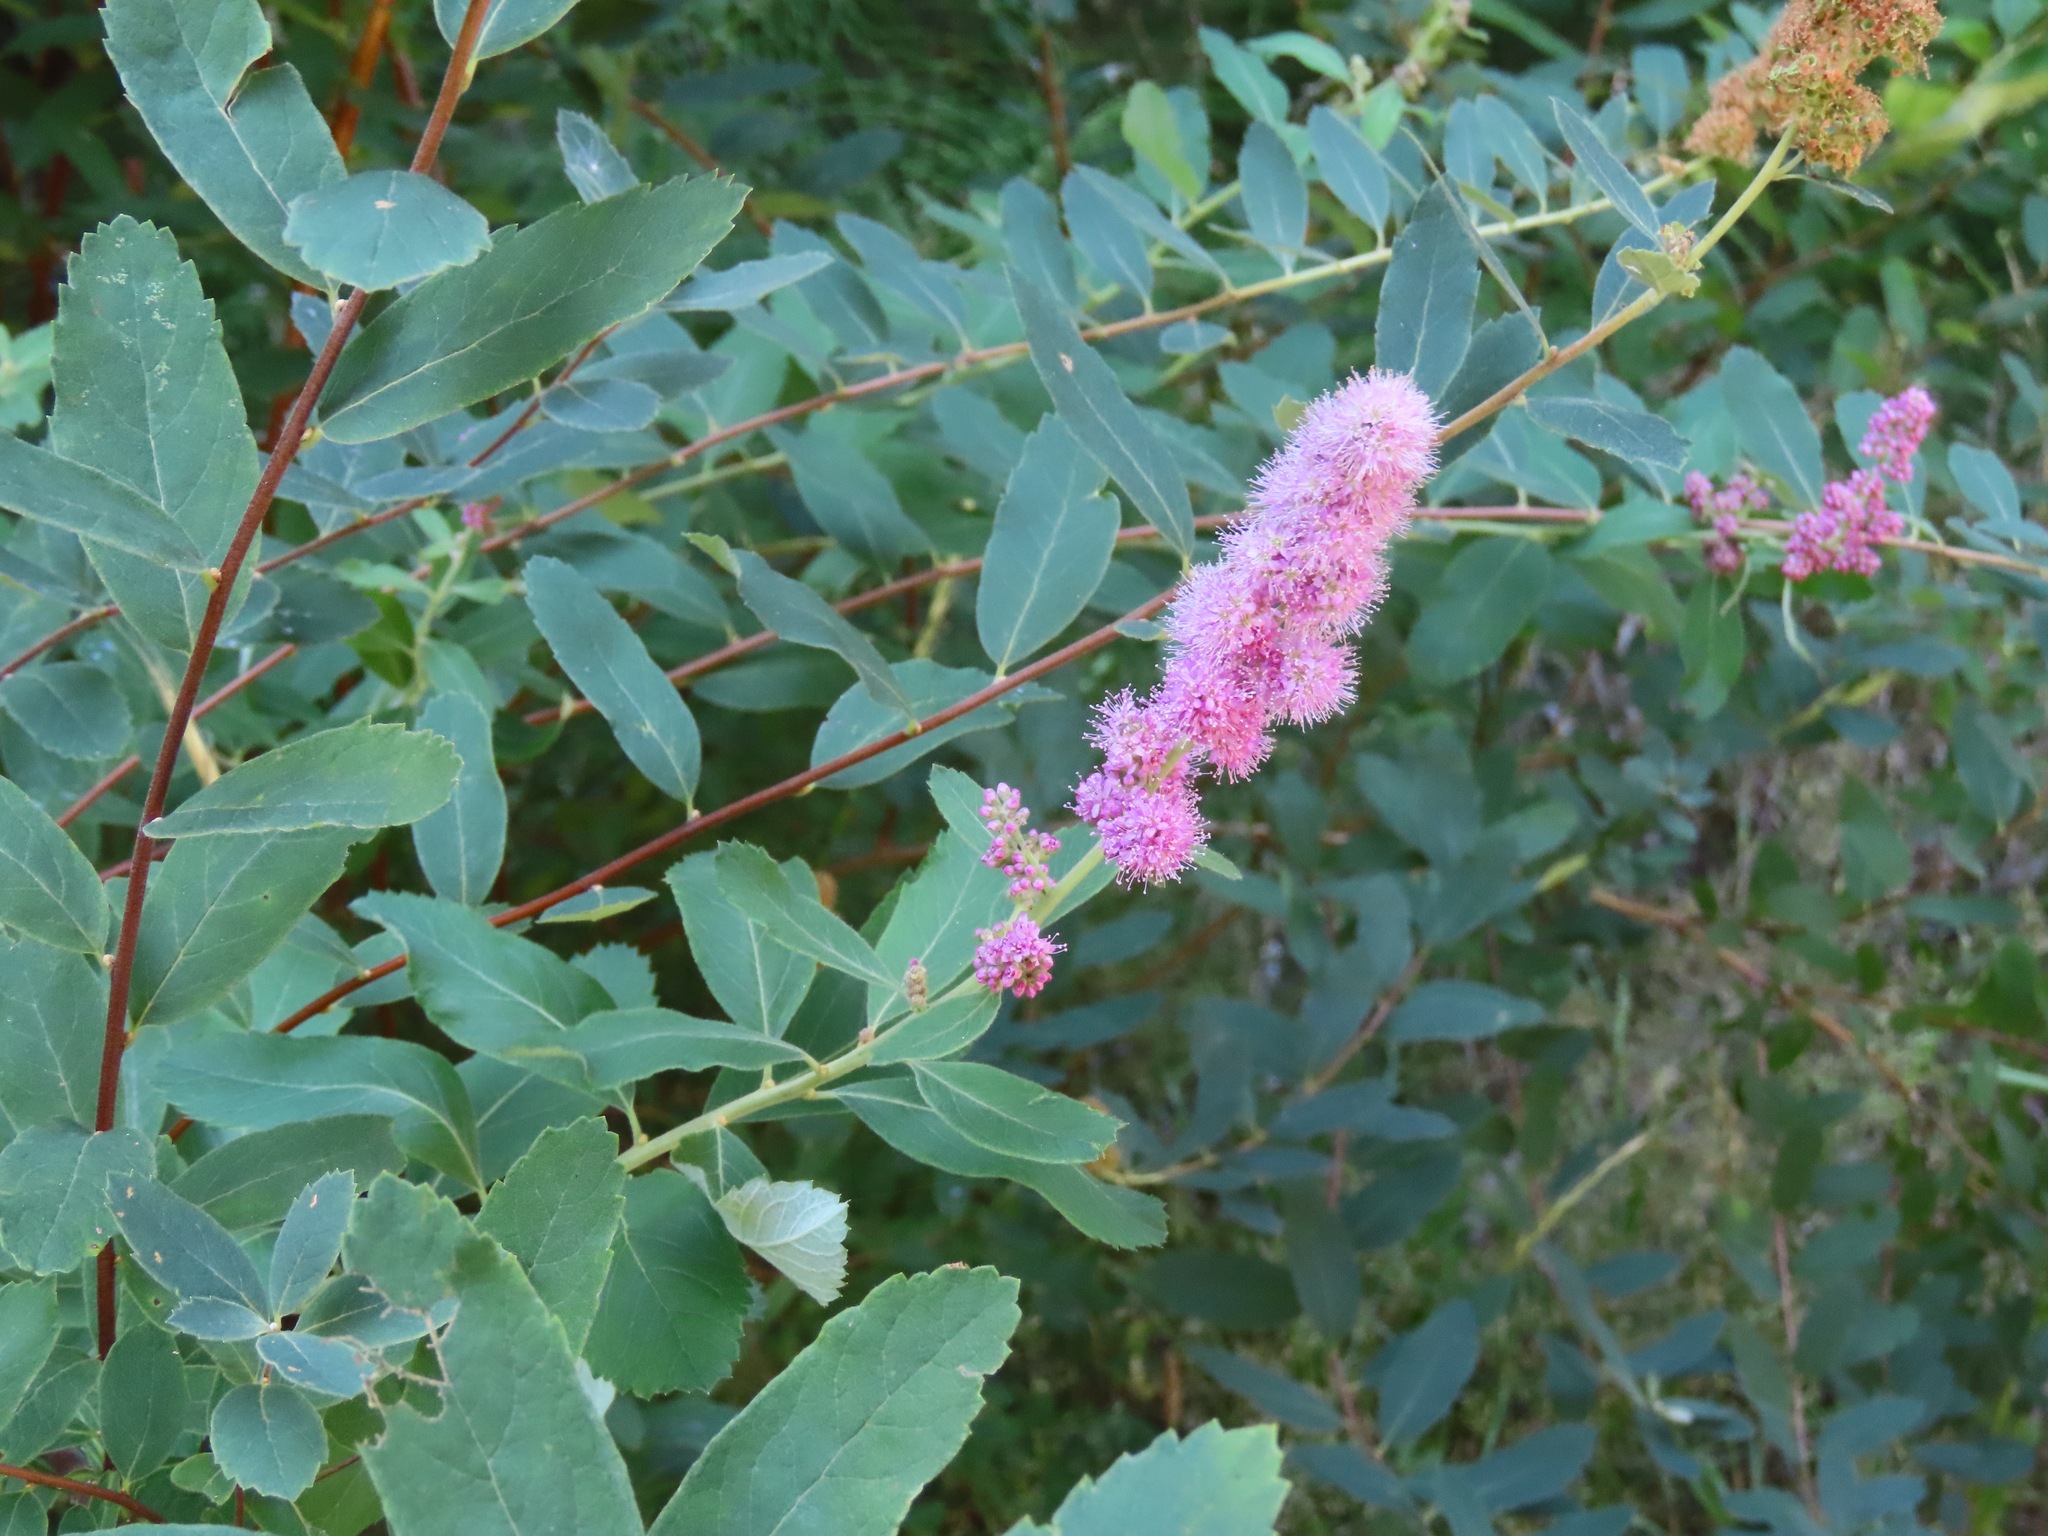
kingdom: Plantae
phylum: Tracheophyta
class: Magnoliopsida
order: Rosales
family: Rosaceae
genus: Spiraea
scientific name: Spiraea douglasii
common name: Steeplebush
